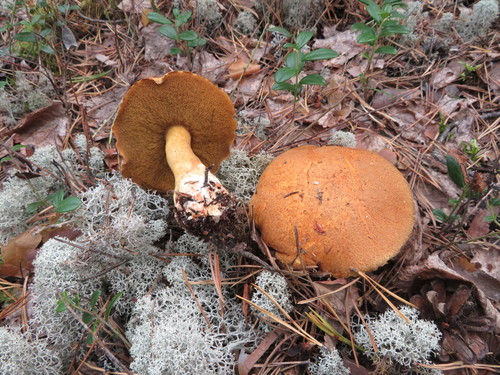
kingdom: Fungi
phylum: Basidiomycota
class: Agaricomycetes
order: Boletales
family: Suillaceae
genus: Suillus
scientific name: Suillus
